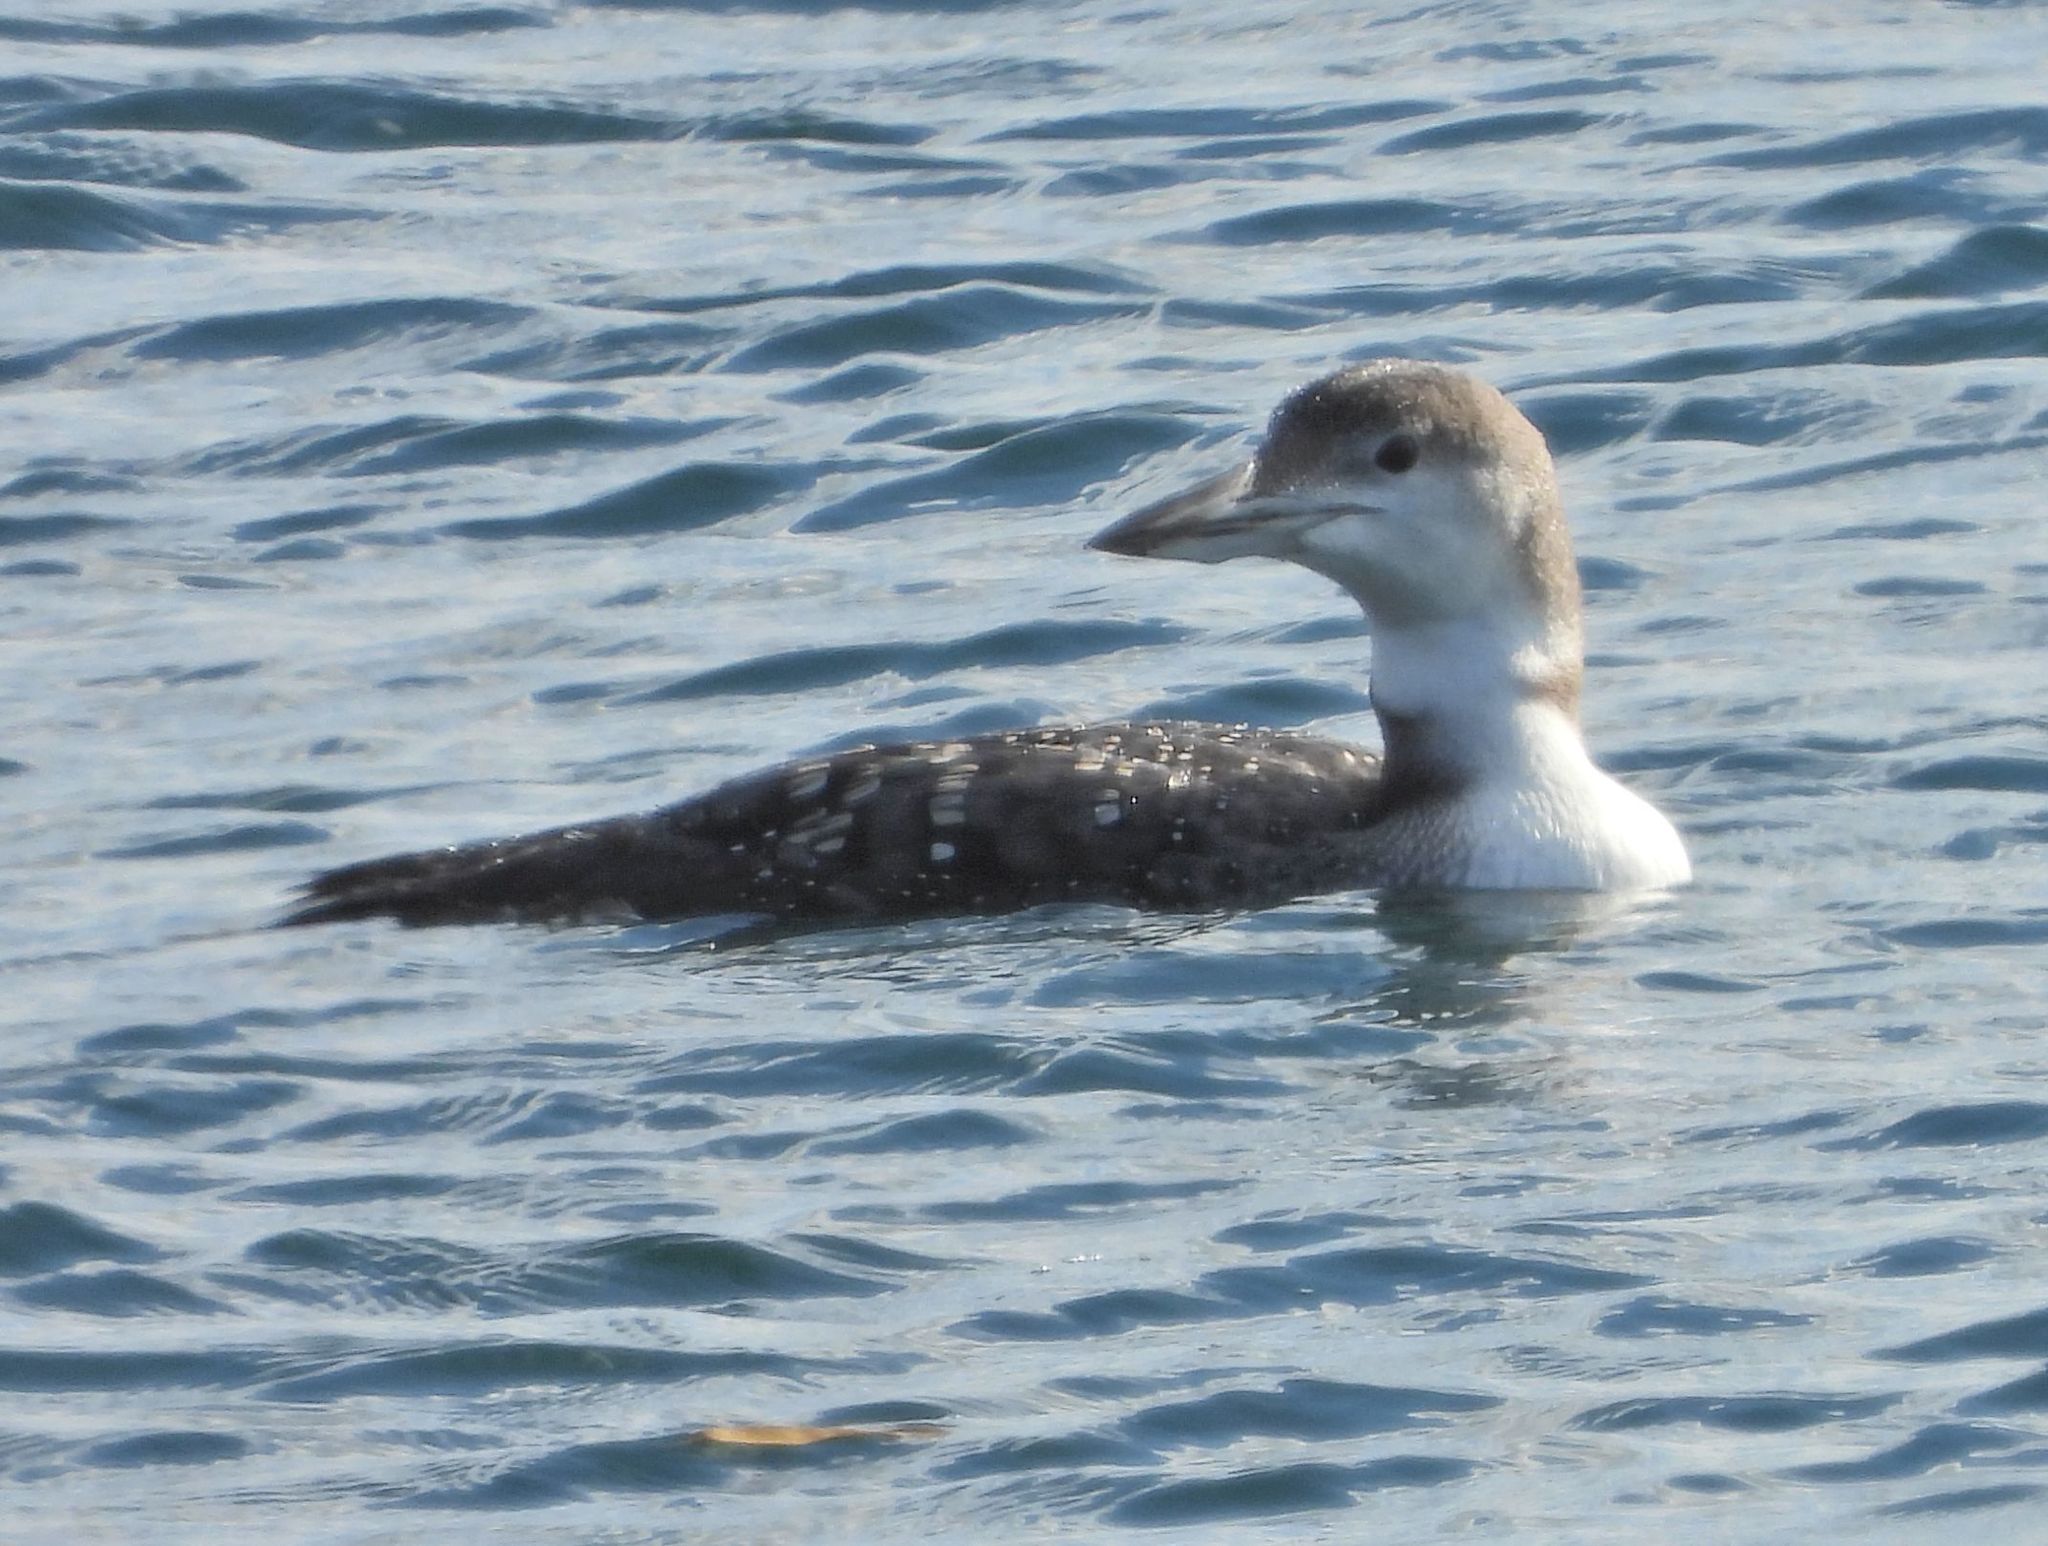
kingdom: Animalia
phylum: Chordata
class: Aves
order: Gaviiformes
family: Gaviidae
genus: Gavia
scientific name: Gavia immer
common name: Common loon
